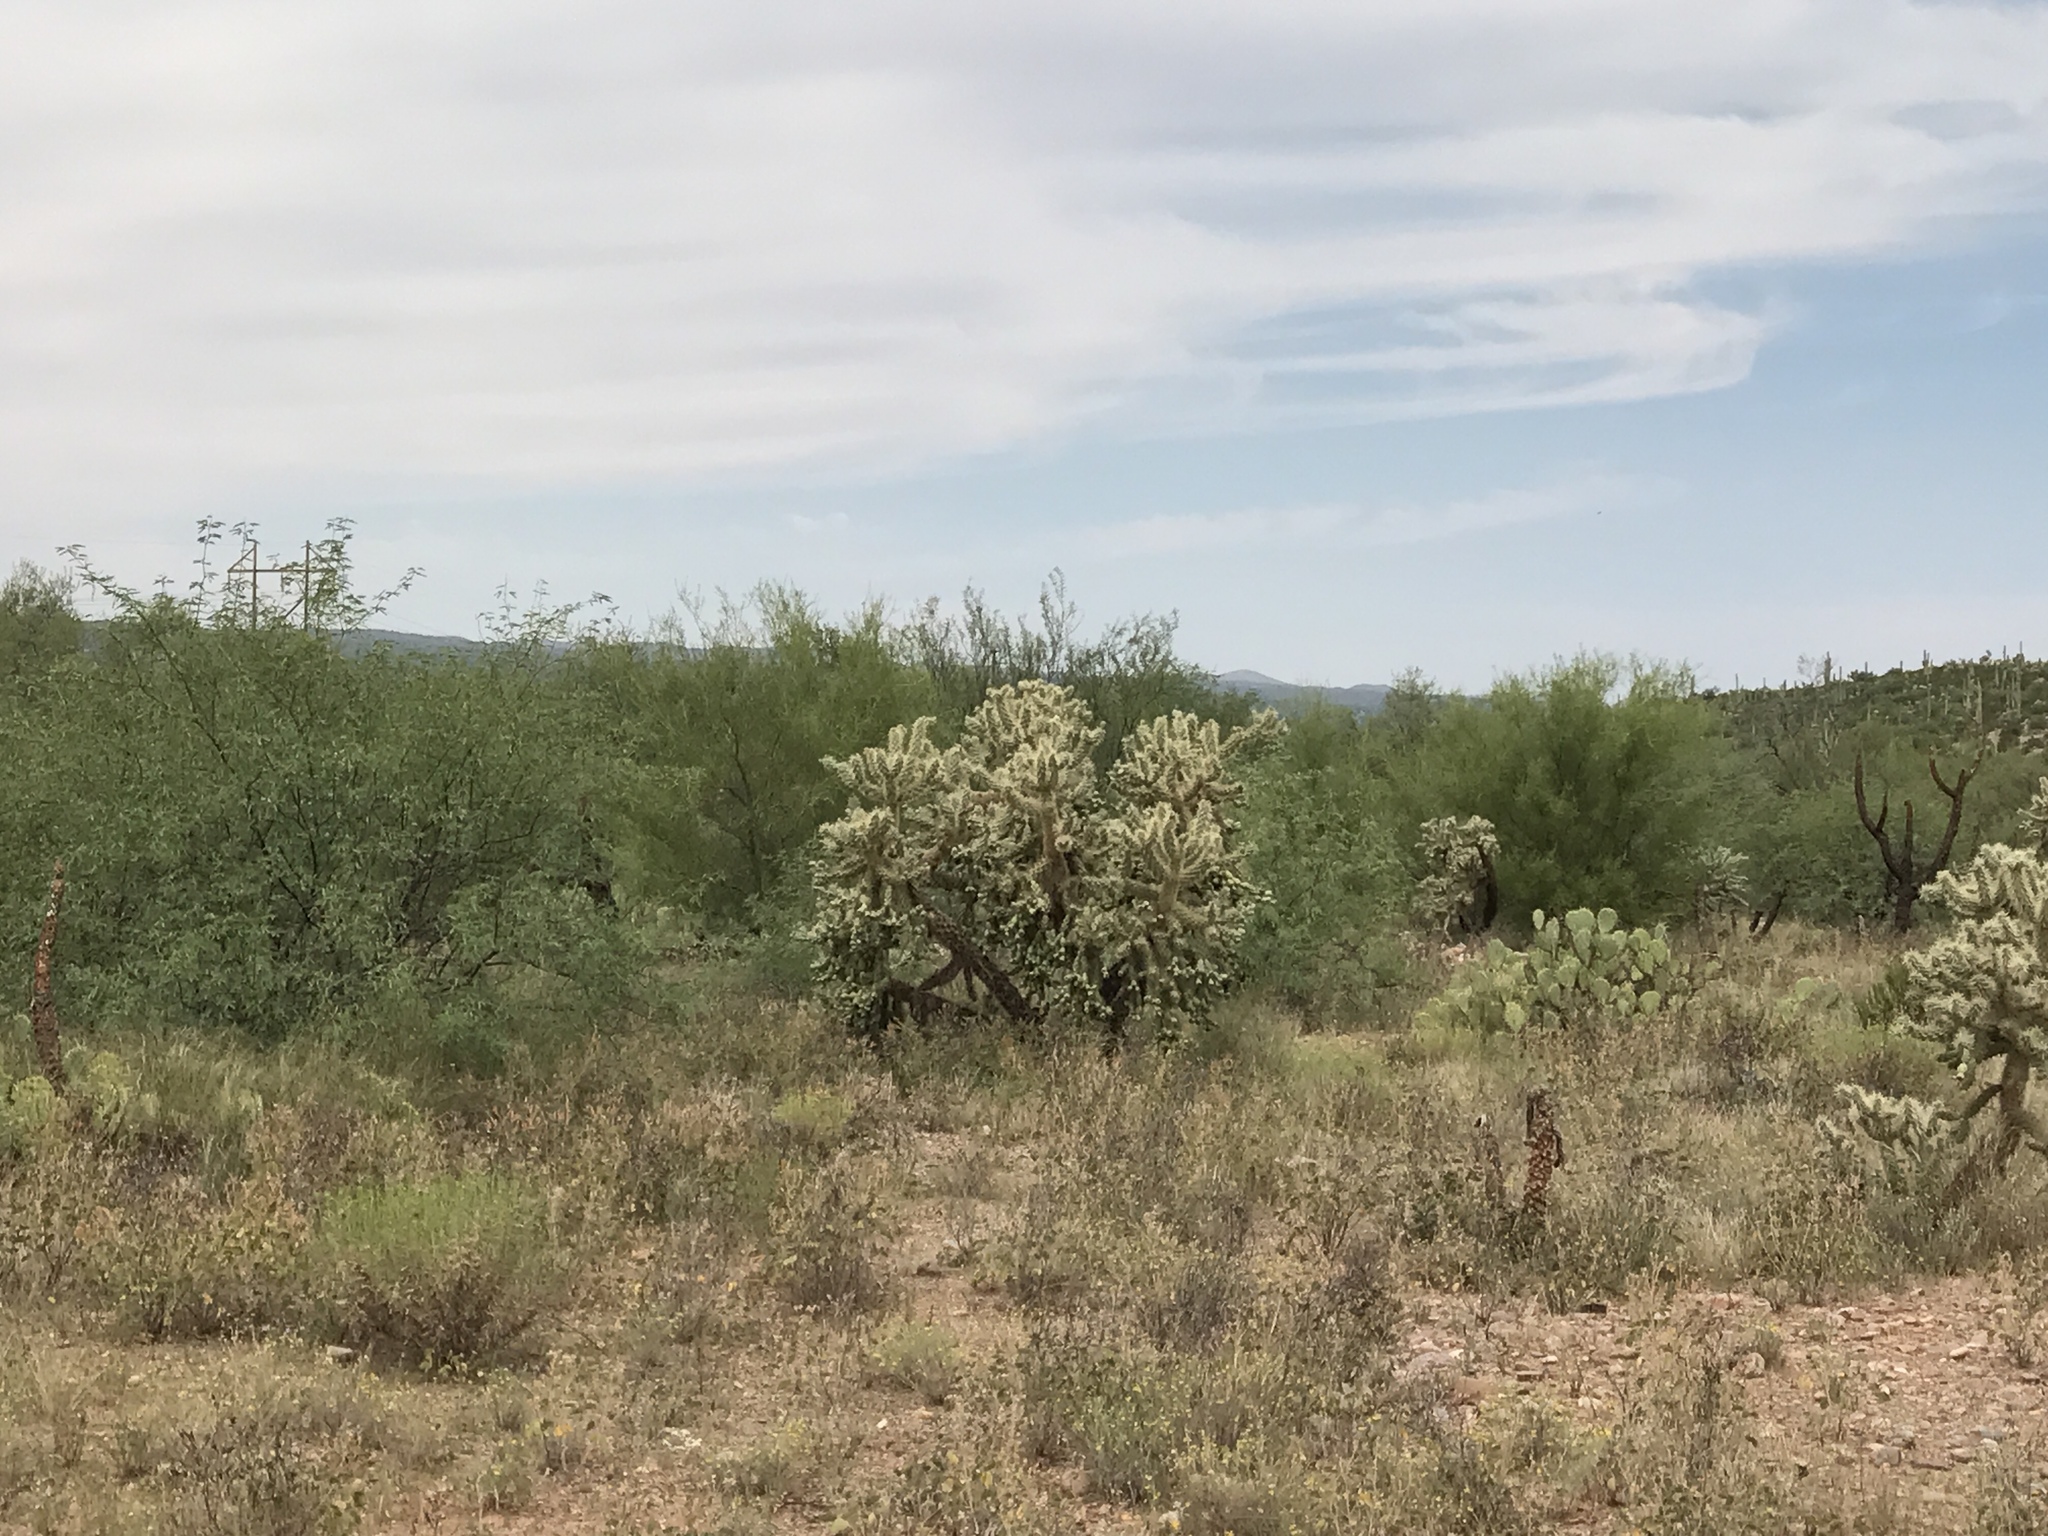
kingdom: Plantae
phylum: Tracheophyta
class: Magnoliopsida
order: Caryophyllales
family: Cactaceae
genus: Cylindropuntia
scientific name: Cylindropuntia fulgida
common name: Jumping cholla
